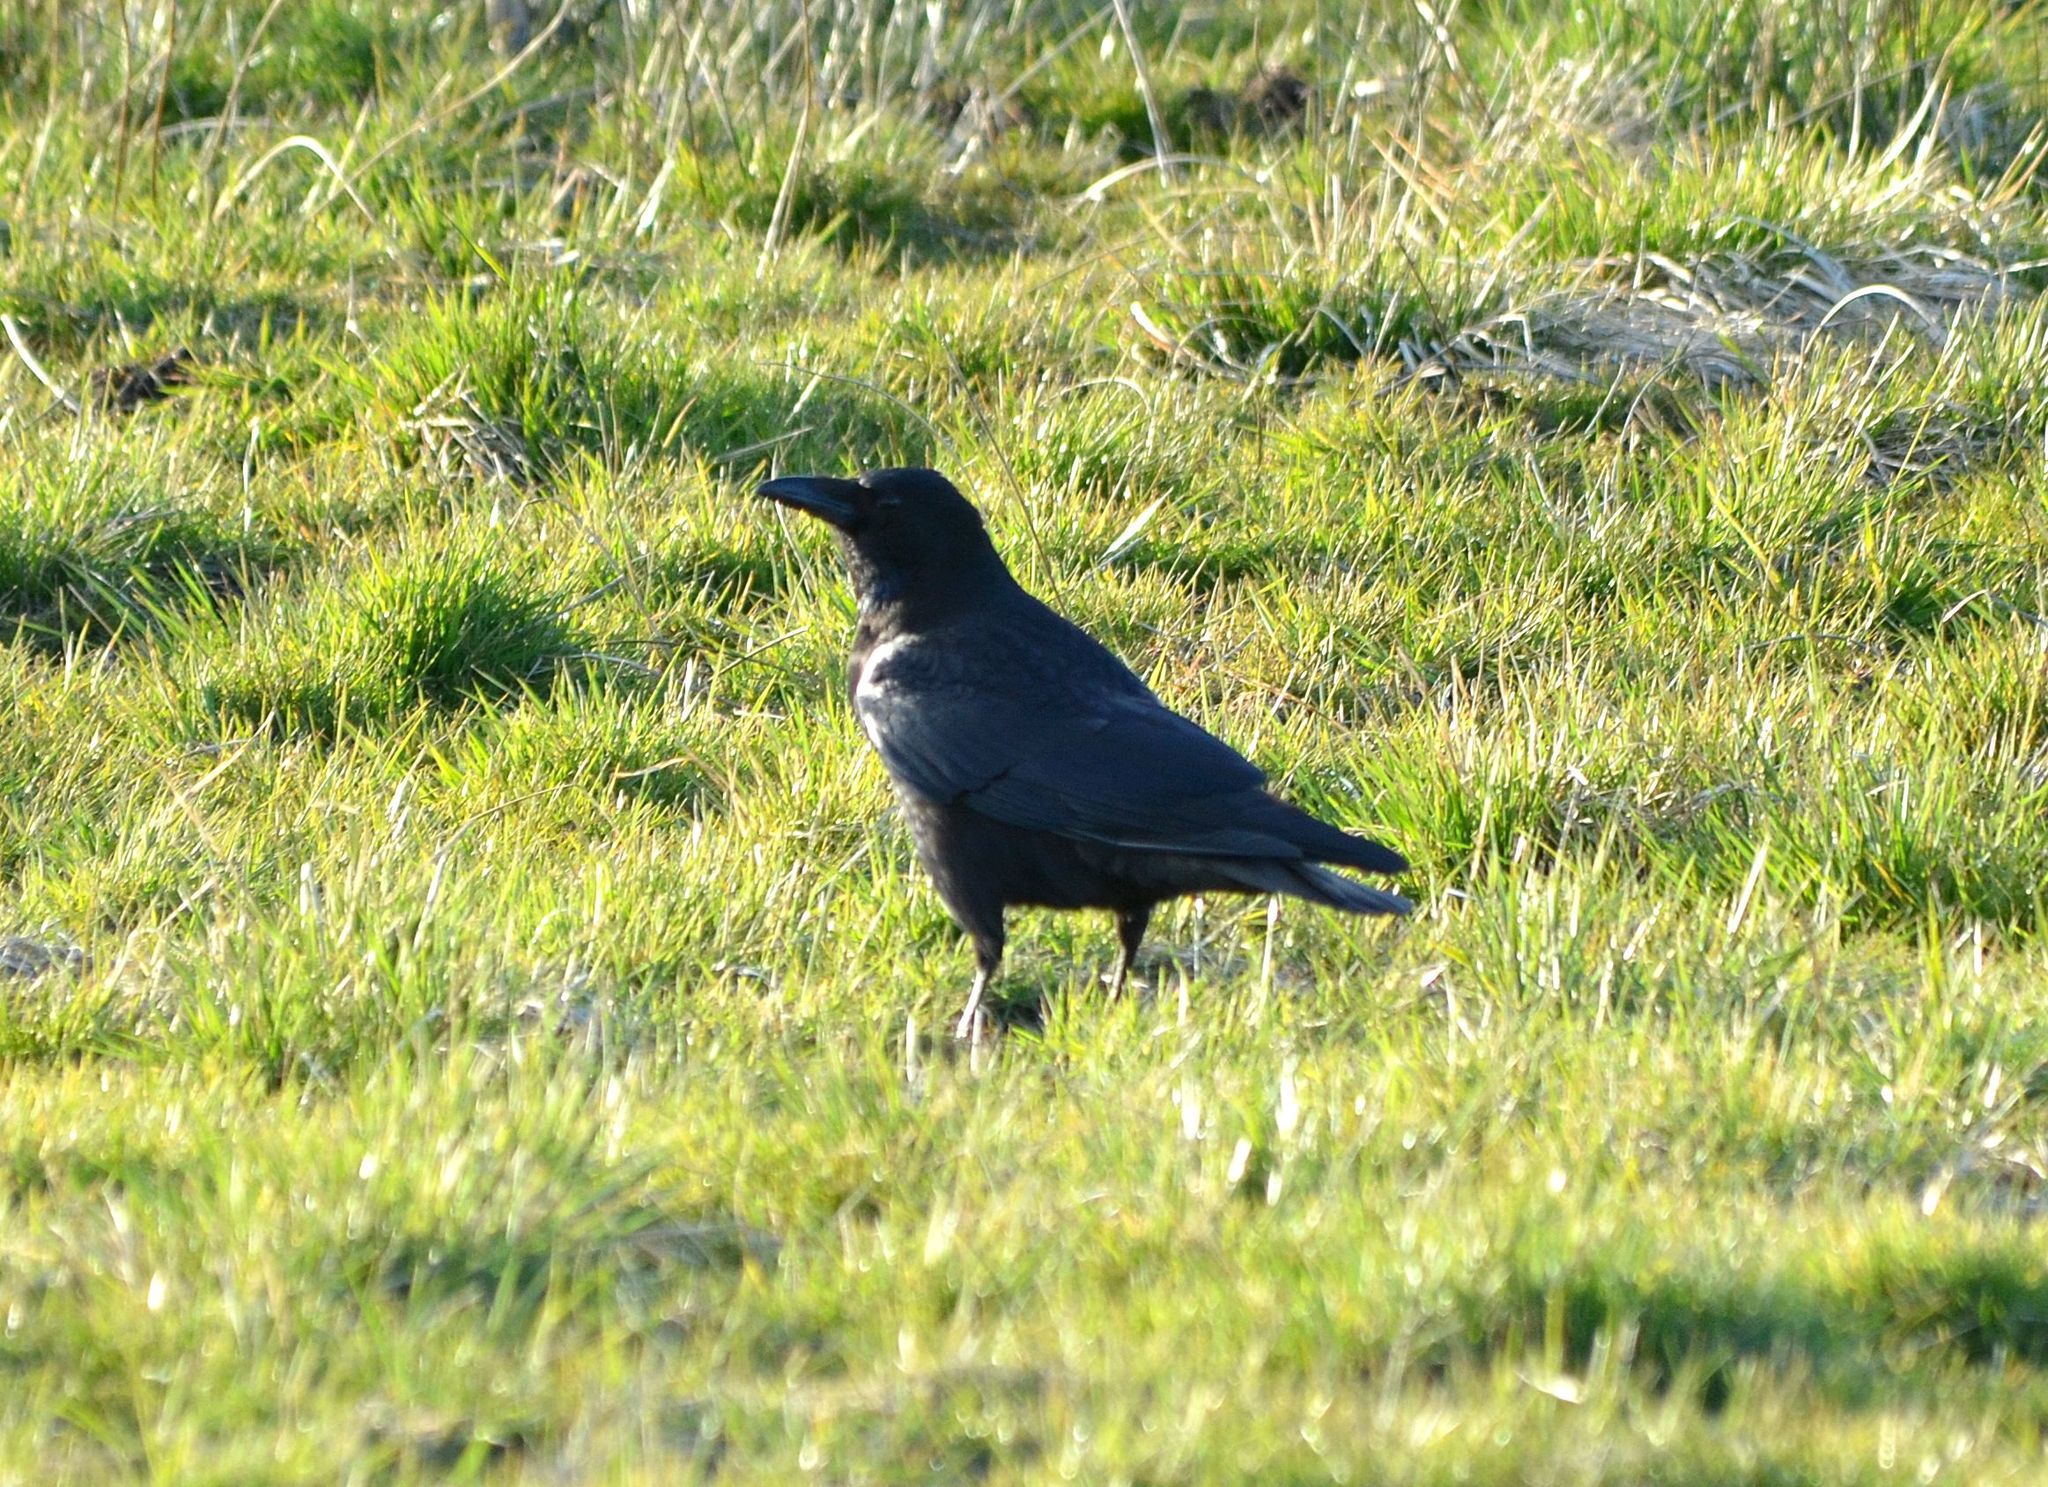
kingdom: Animalia
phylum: Chordata
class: Aves
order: Passeriformes
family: Corvidae
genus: Corvus
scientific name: Corvus corone
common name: Carrion crow
